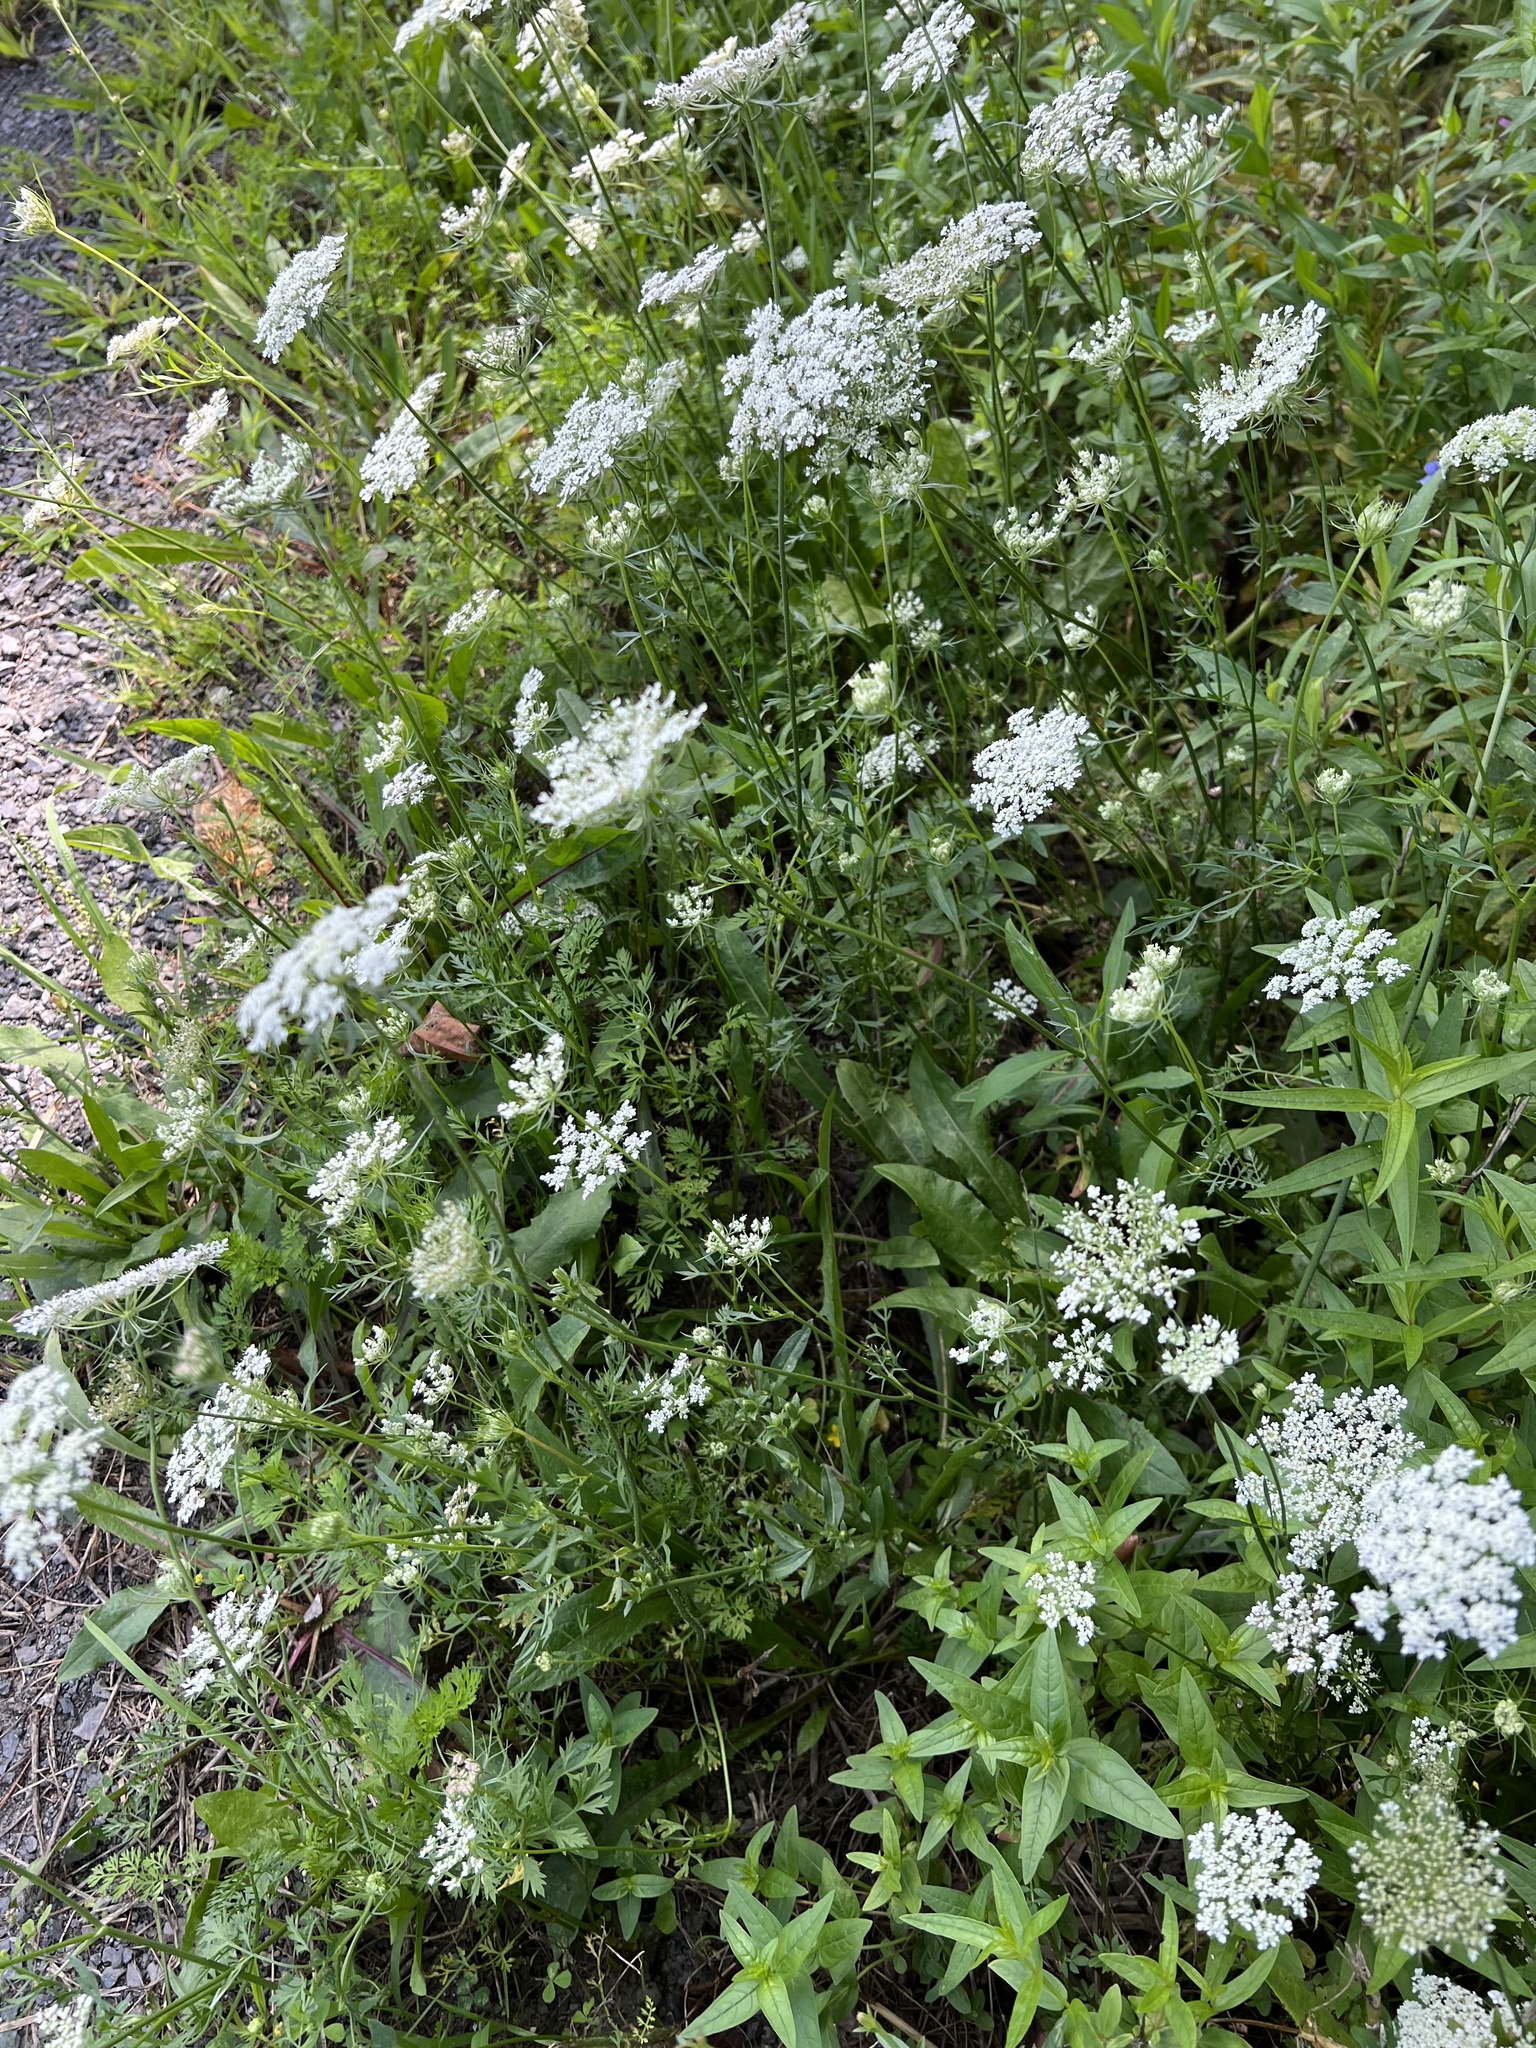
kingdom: Plantae
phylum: Tracheophyta
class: Magnoliopsida
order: Apiales
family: Apiaceae
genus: Daucus
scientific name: Daucus carota
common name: Wild carrot
